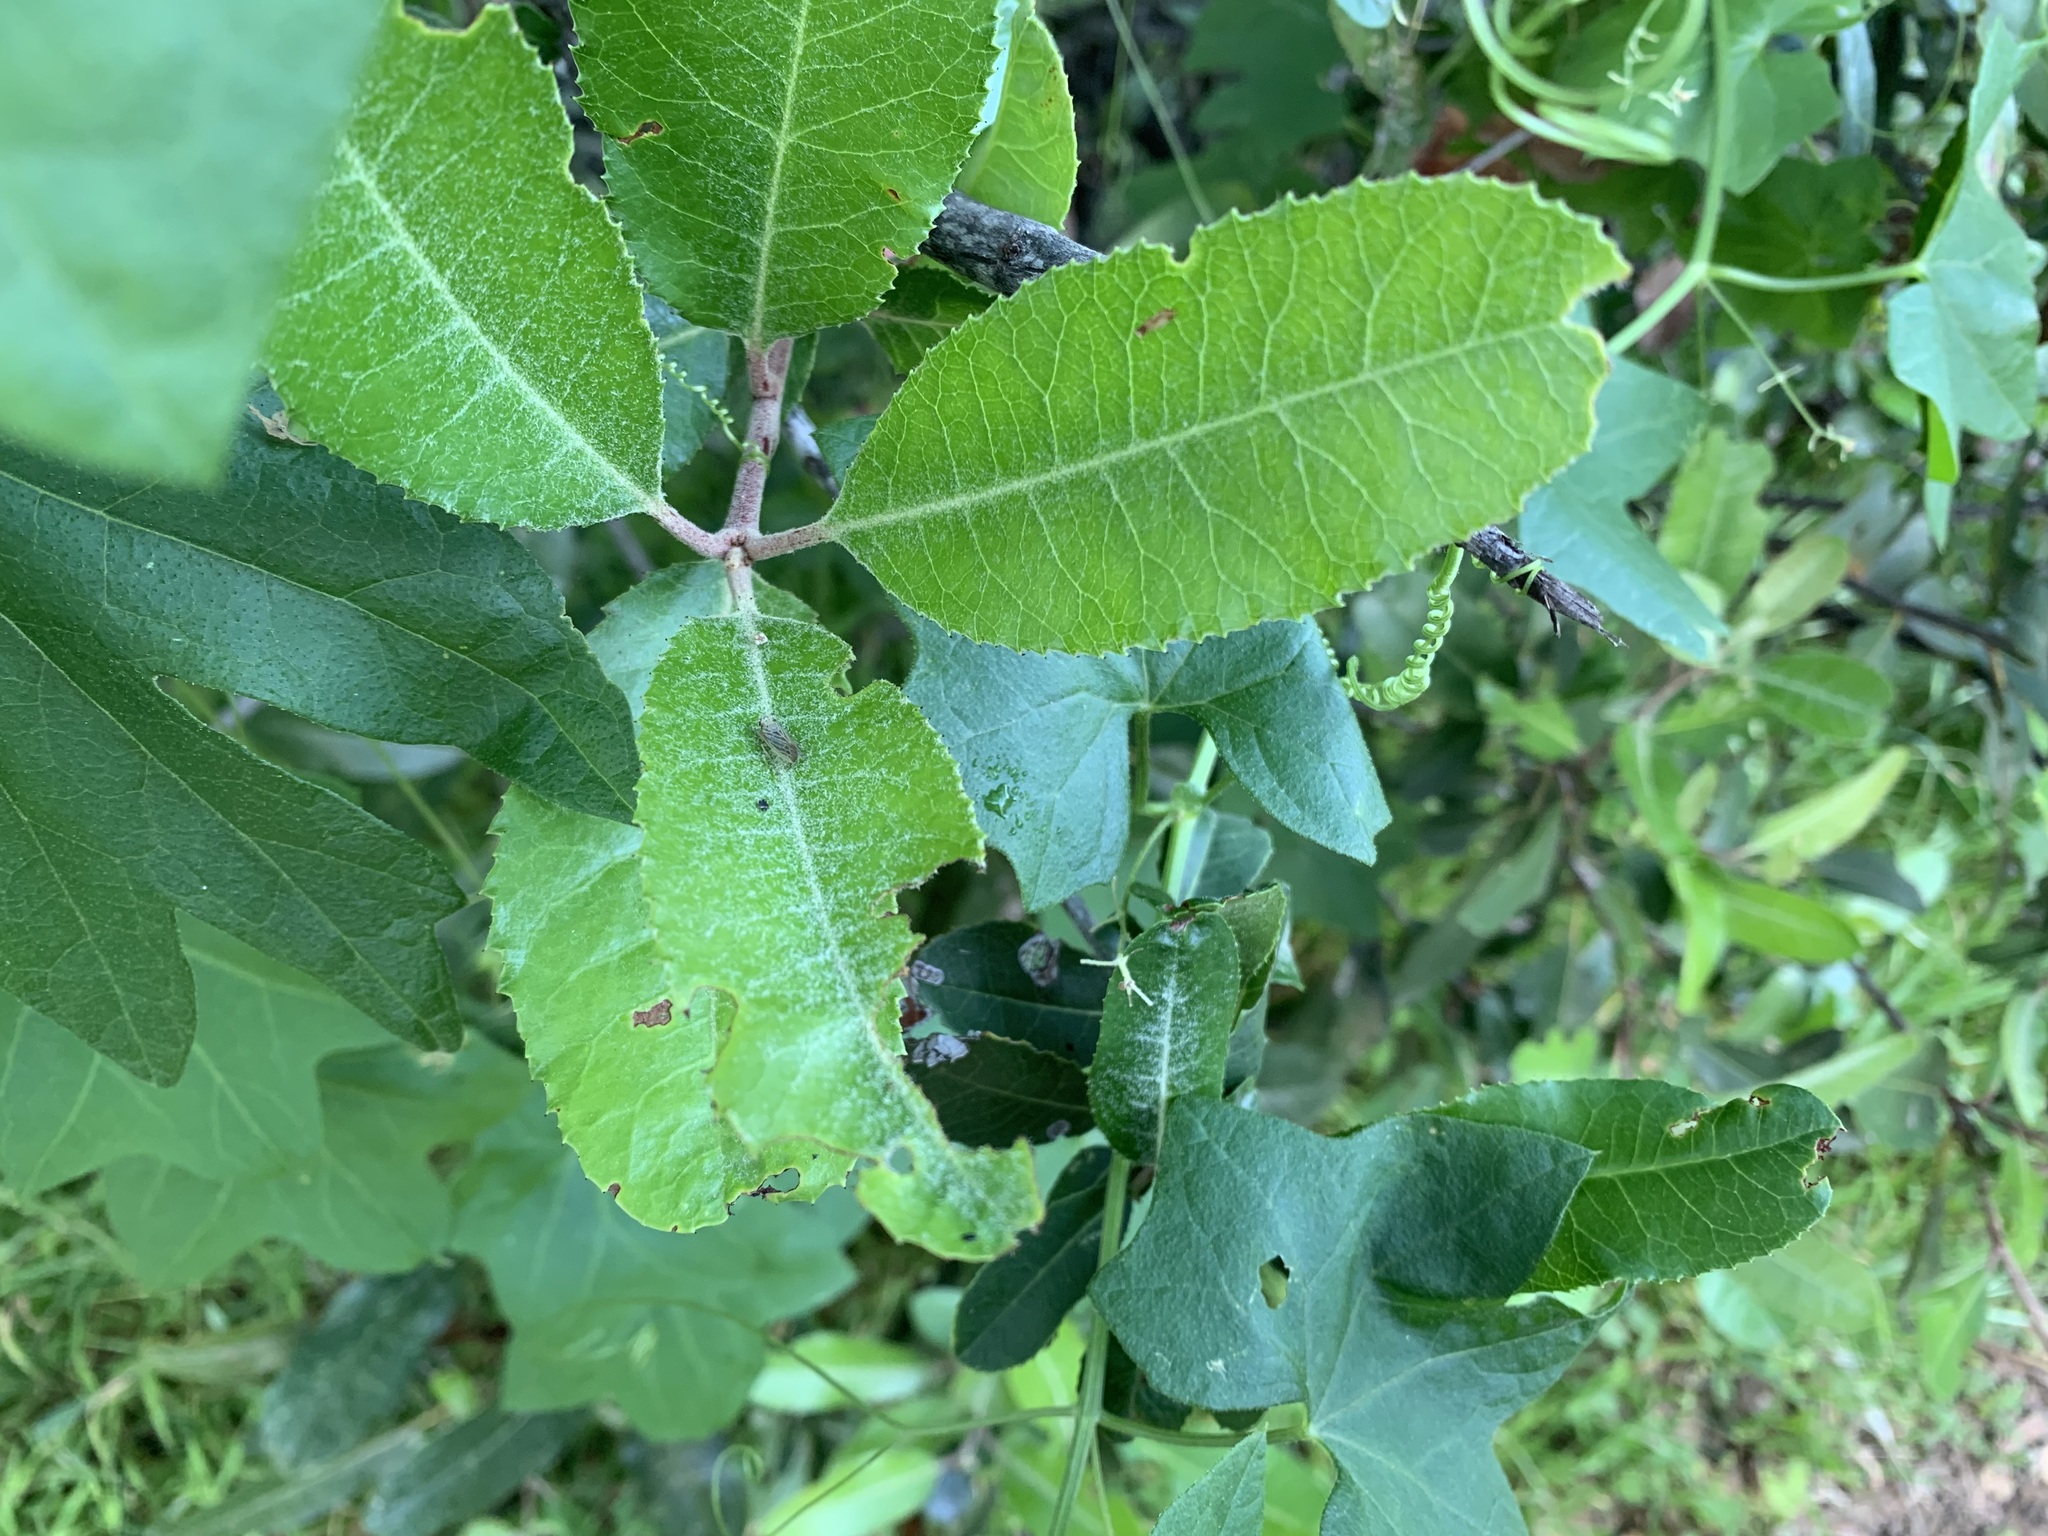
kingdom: Animalia
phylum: Arthropoda
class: Insecta
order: Hemiptera
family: Cicadellidae
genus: Pagaronia
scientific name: Pagaronia triunata
